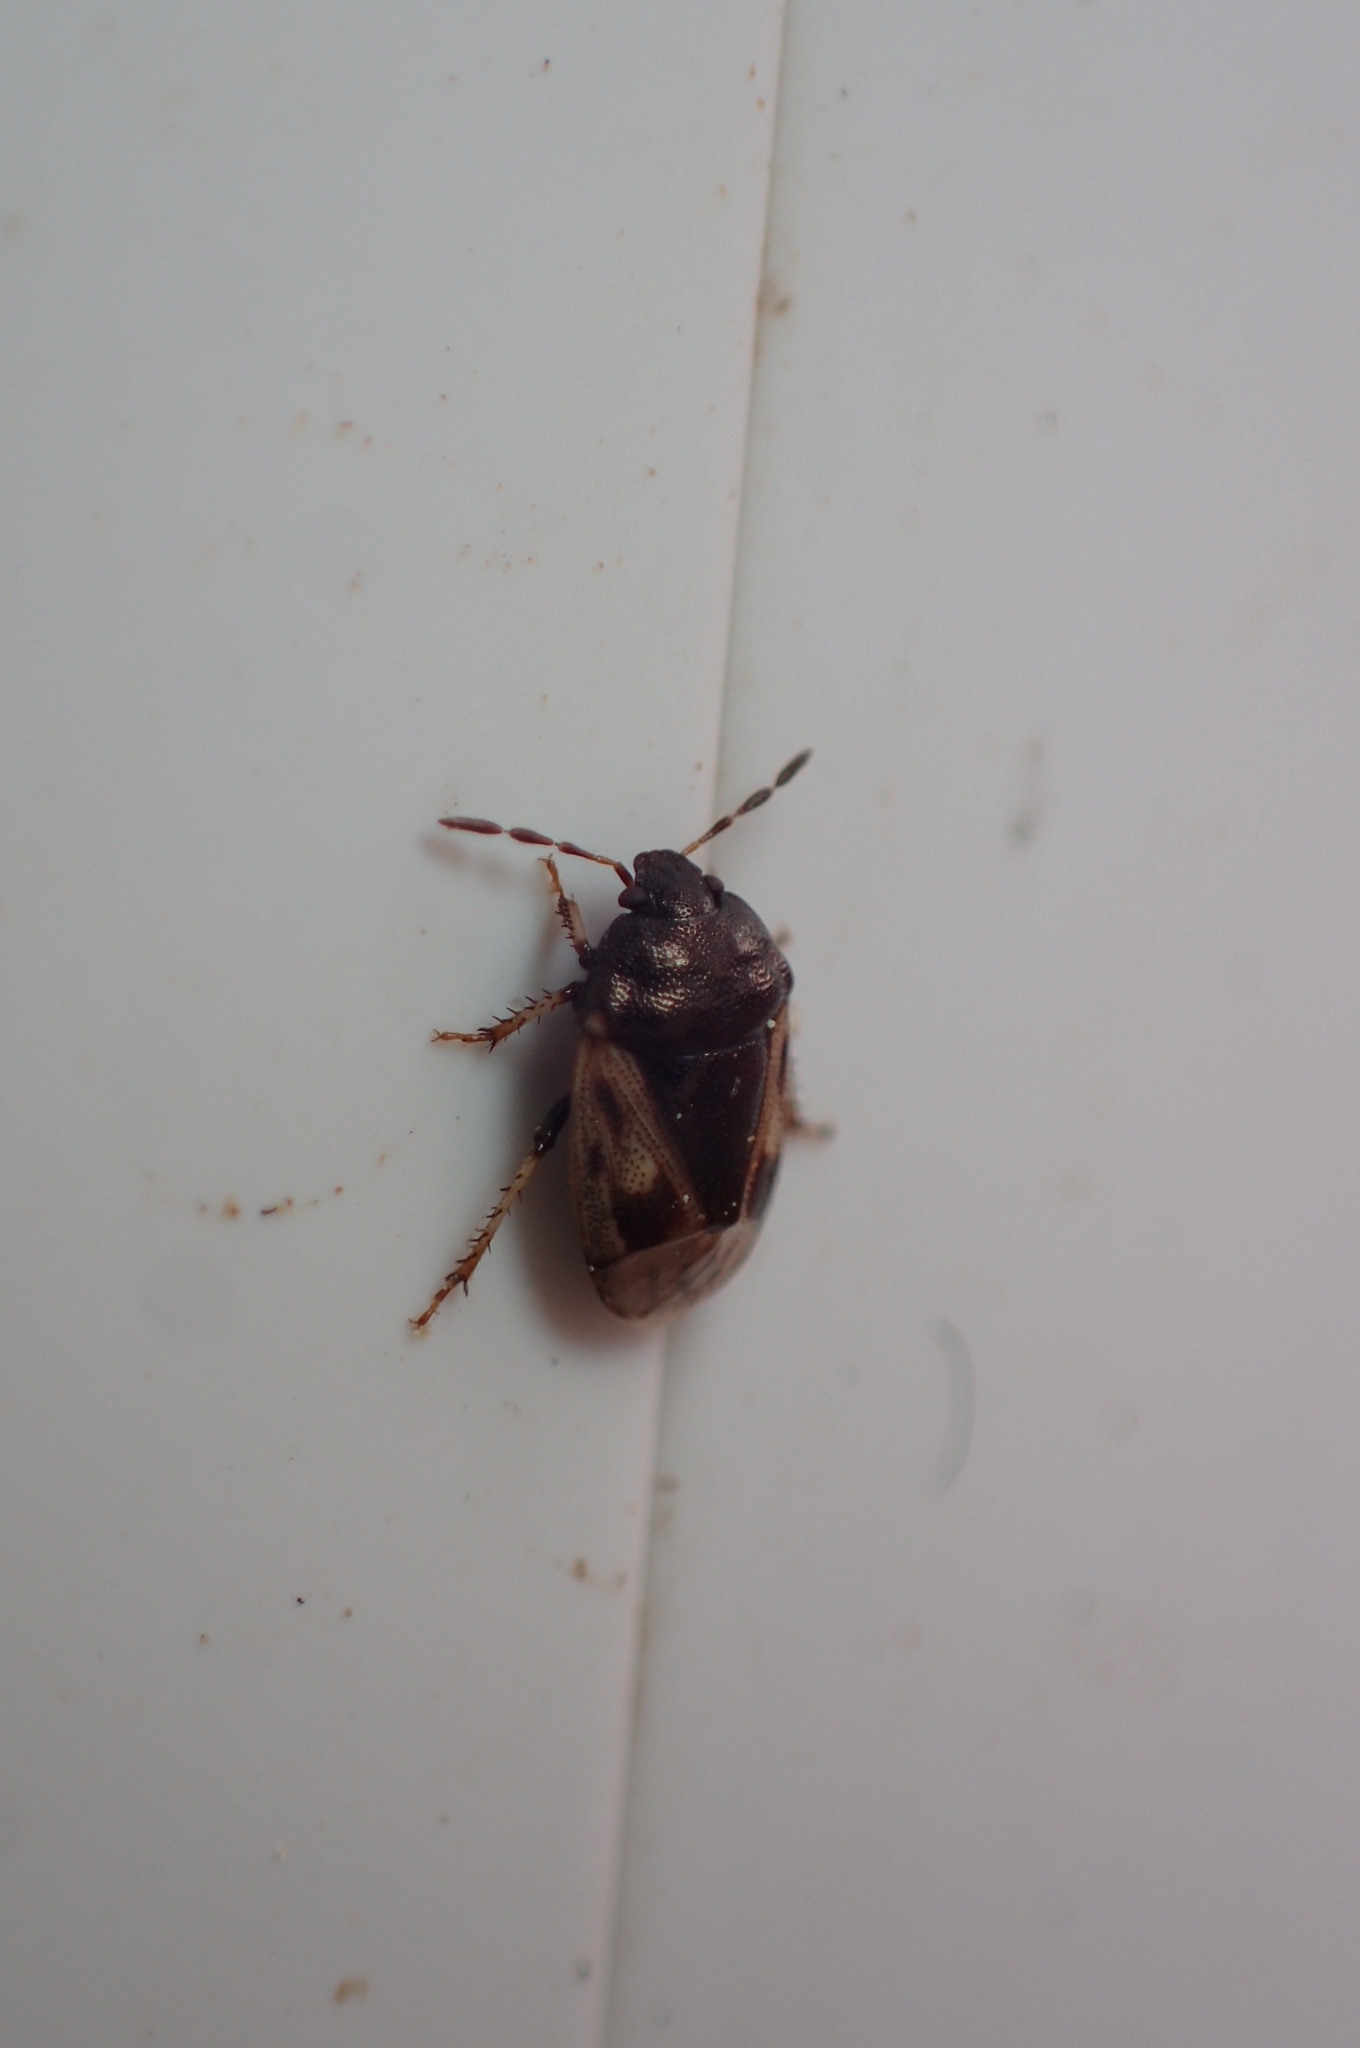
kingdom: Animalia
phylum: Arthropoda
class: Insecta
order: Hemiptera
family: Cydnidae
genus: Crocistethus
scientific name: Crocistethus waltlianus
